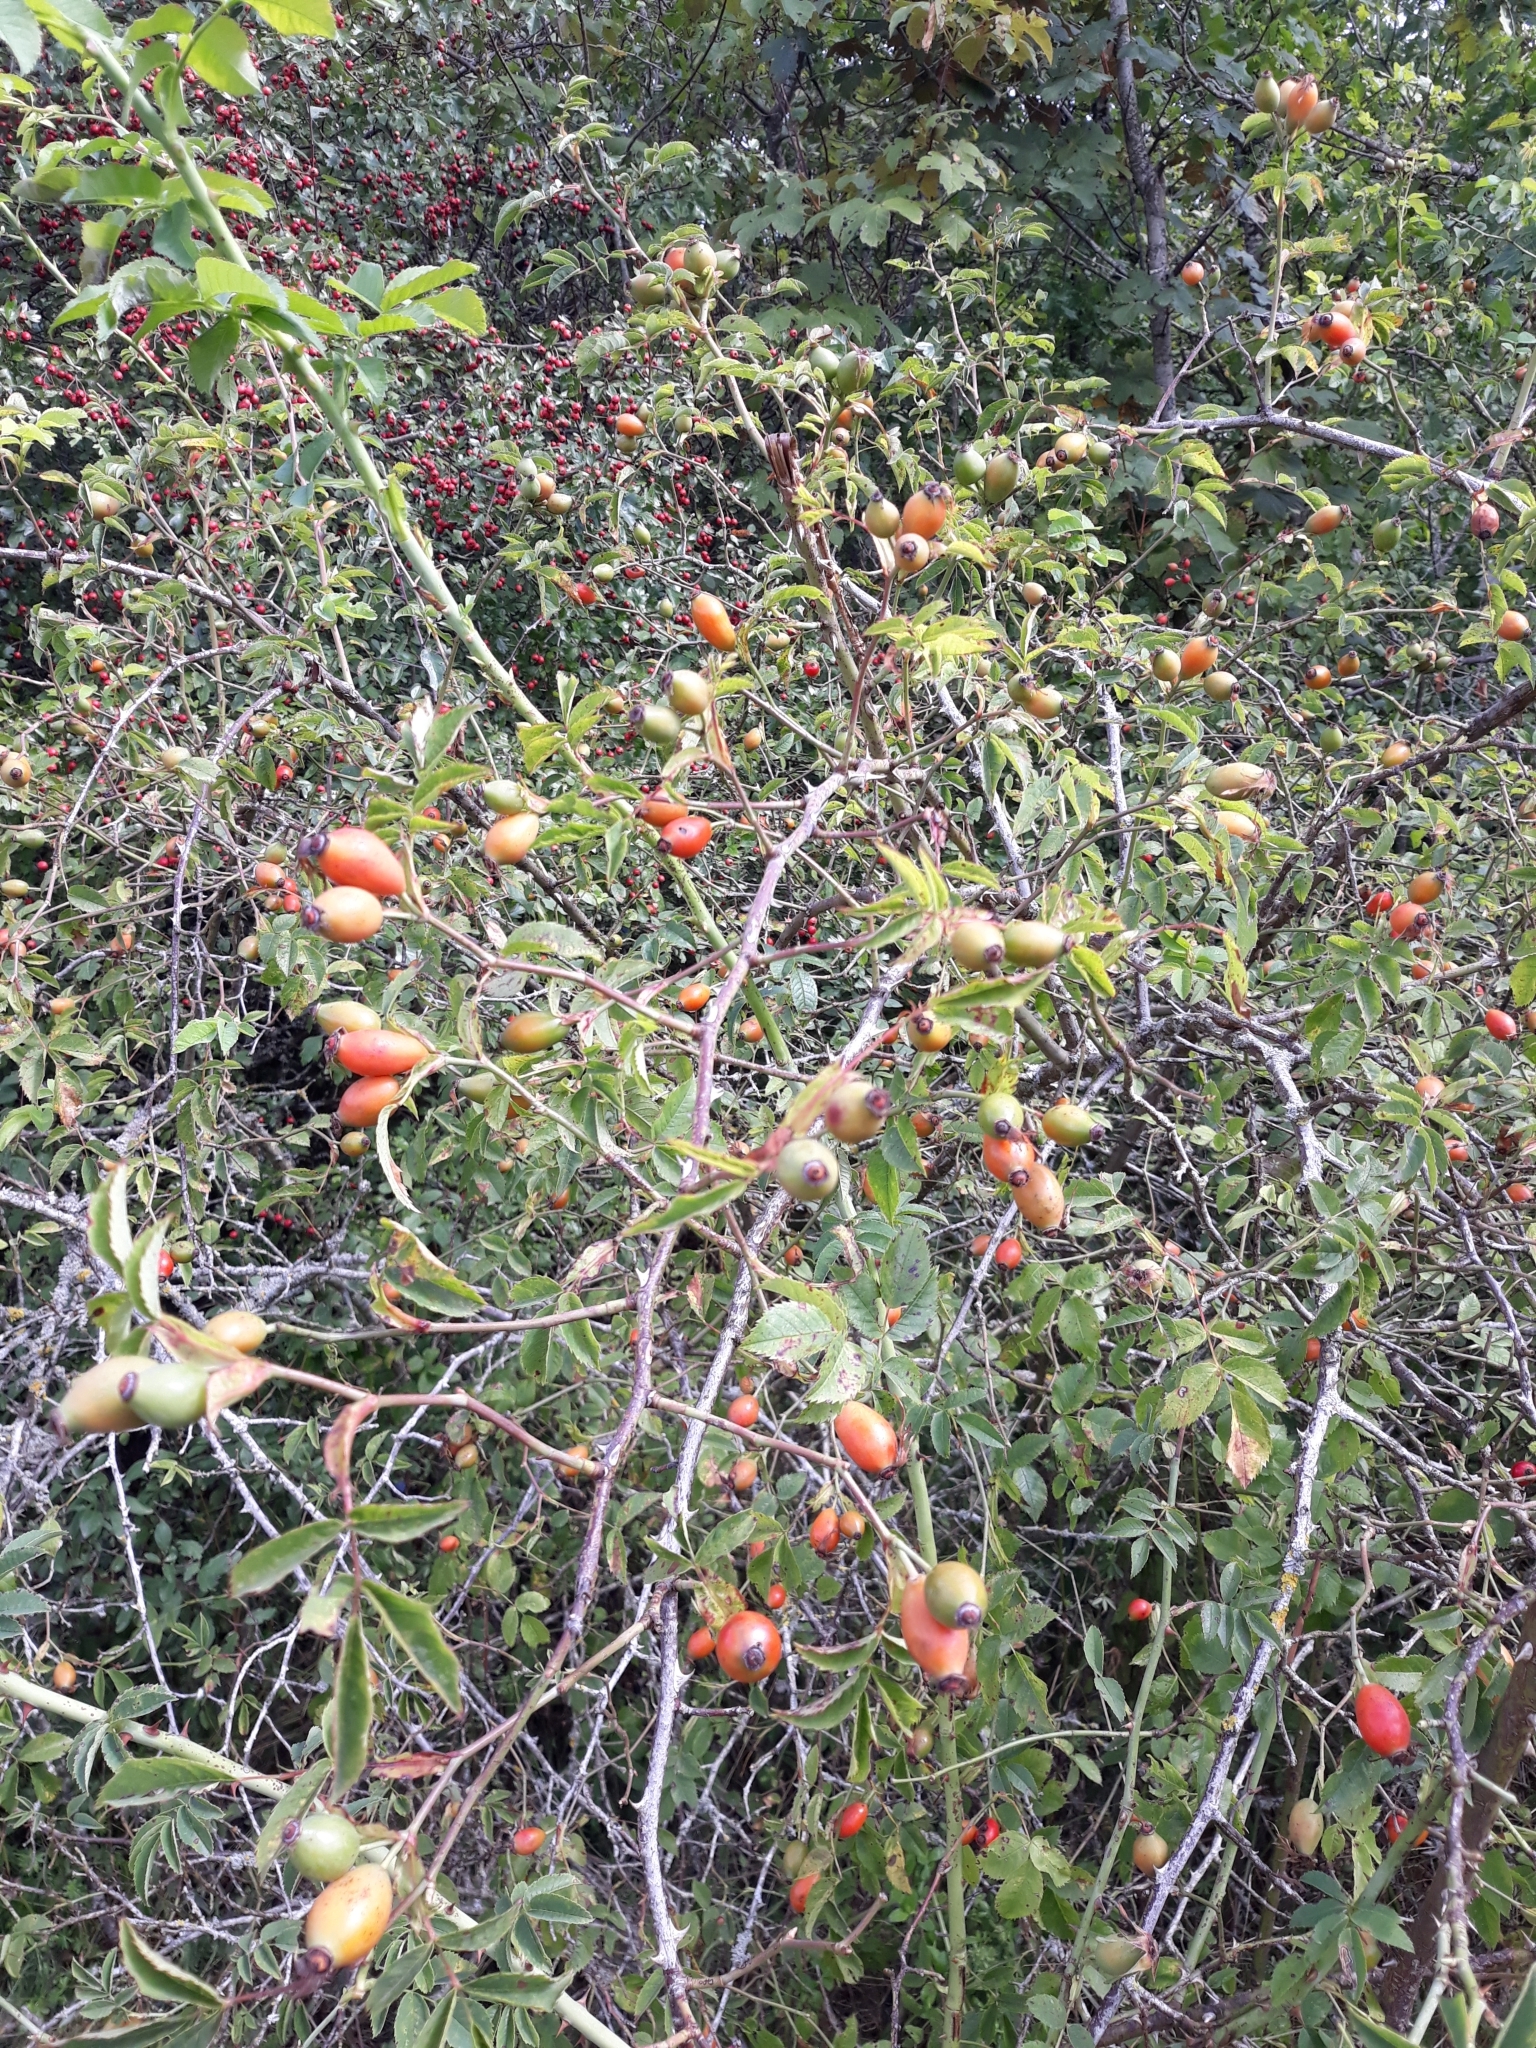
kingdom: Plantae
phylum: Tracheophyta
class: Magnoliopsida
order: Rosales
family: Rosaceae
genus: Rosa
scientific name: Rosa canina
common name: Dog rose
